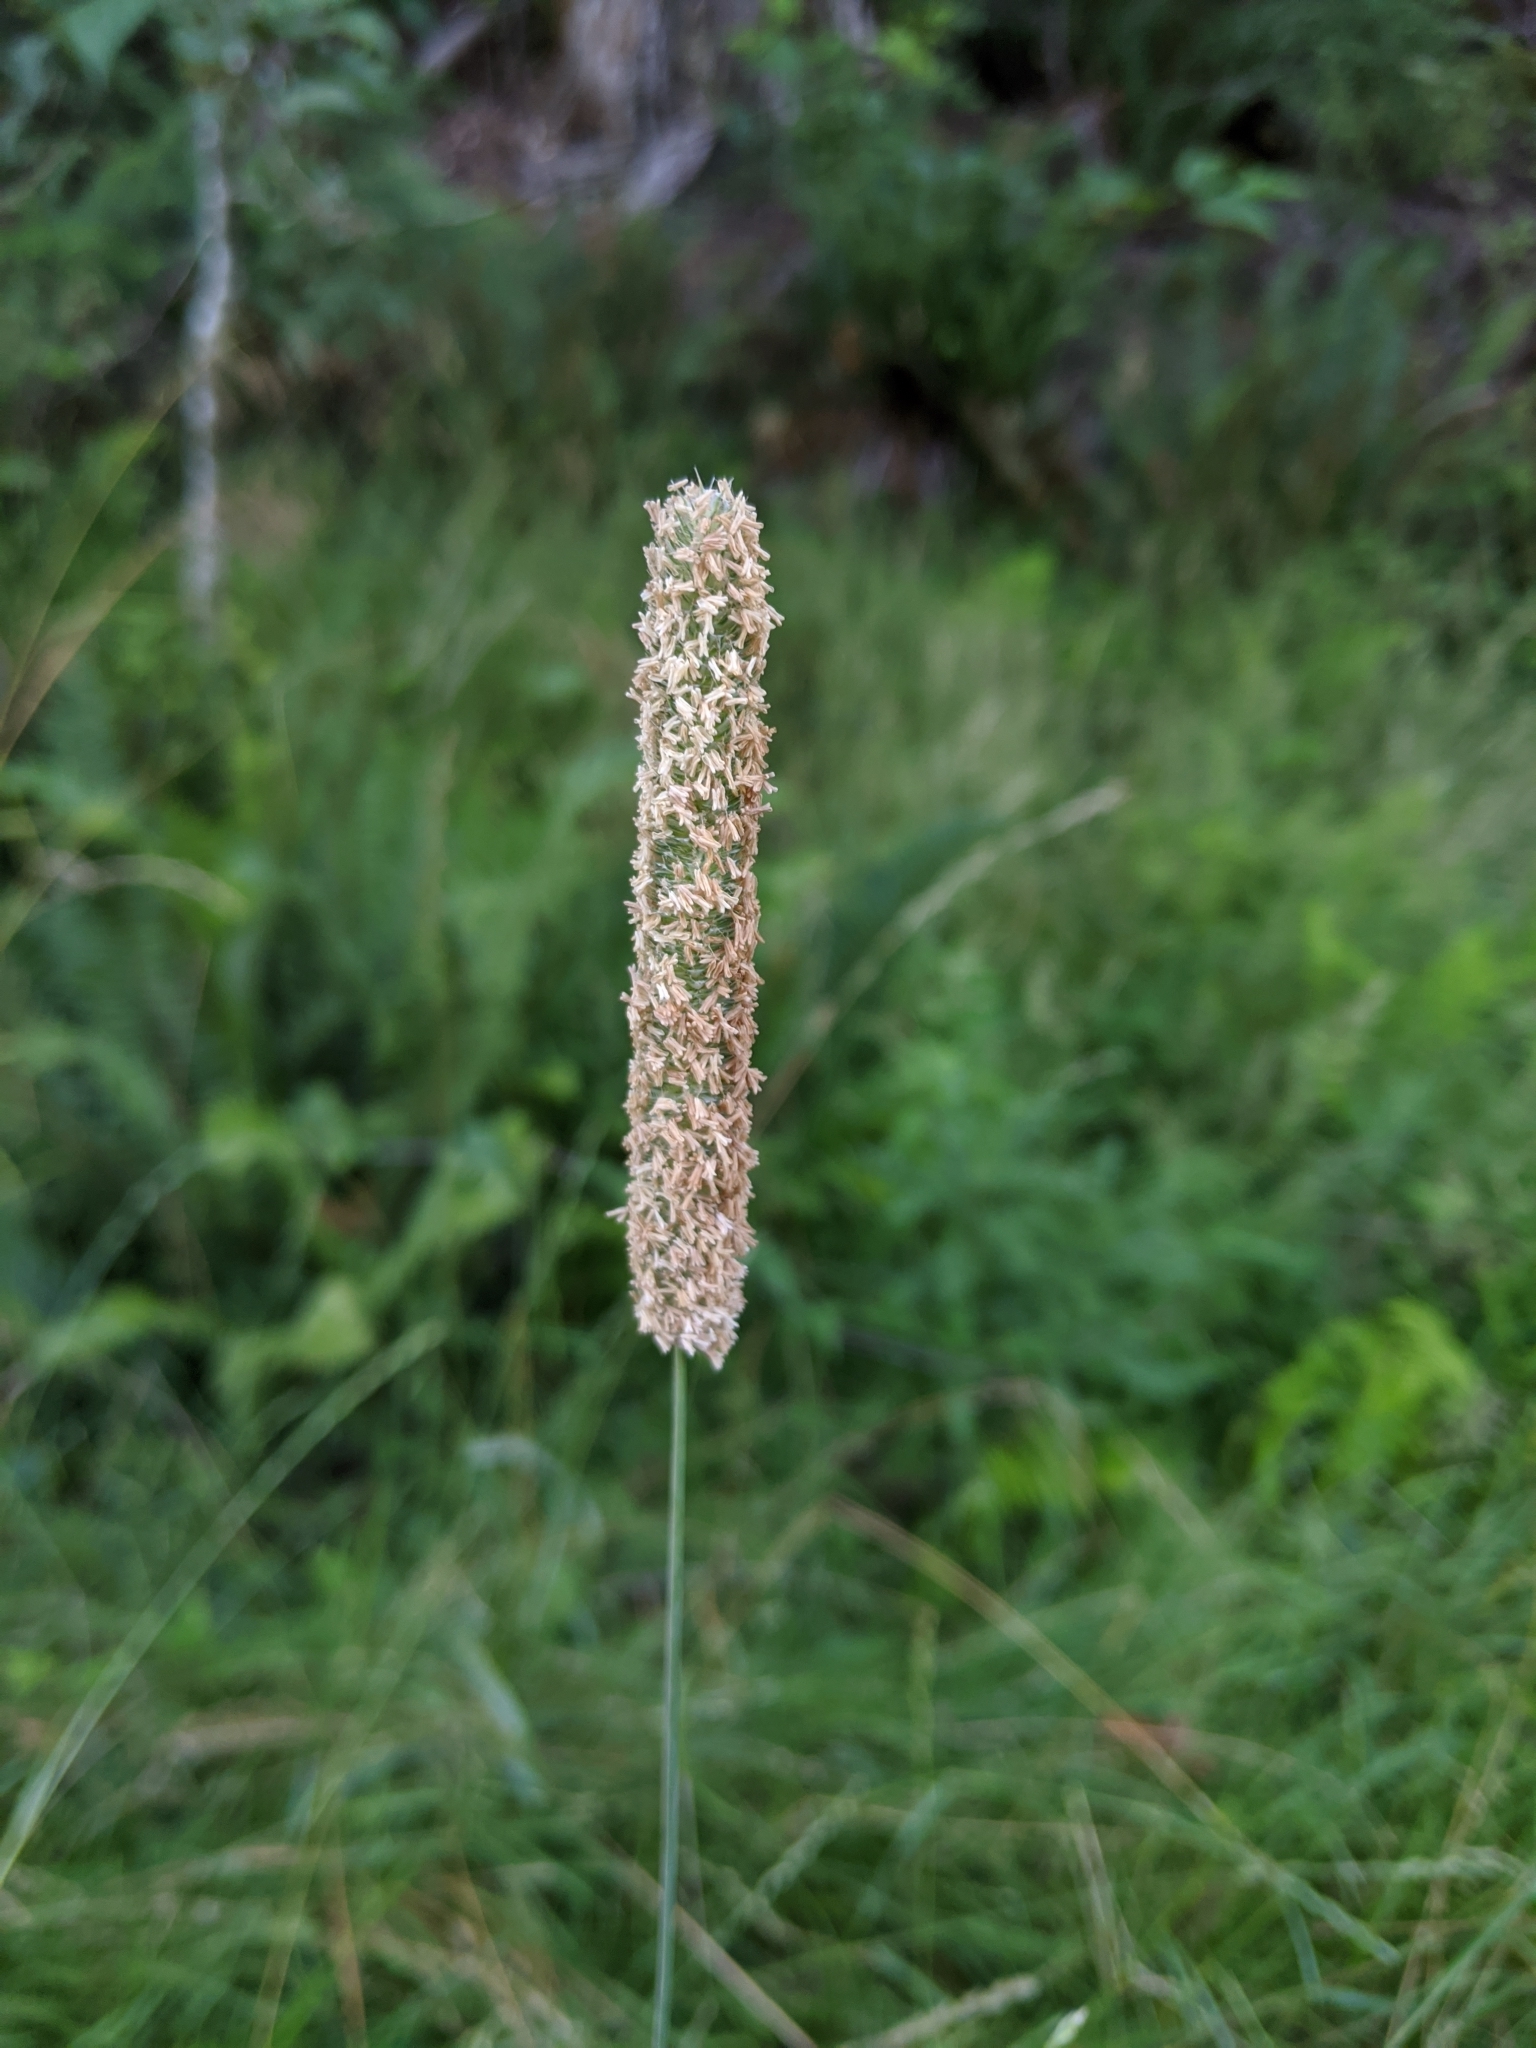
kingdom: Plantae
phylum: Tracheophyta
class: Liliopsida
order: Poales
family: Poaceae
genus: Phleum
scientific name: Phleum pratense
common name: Timothy grass
